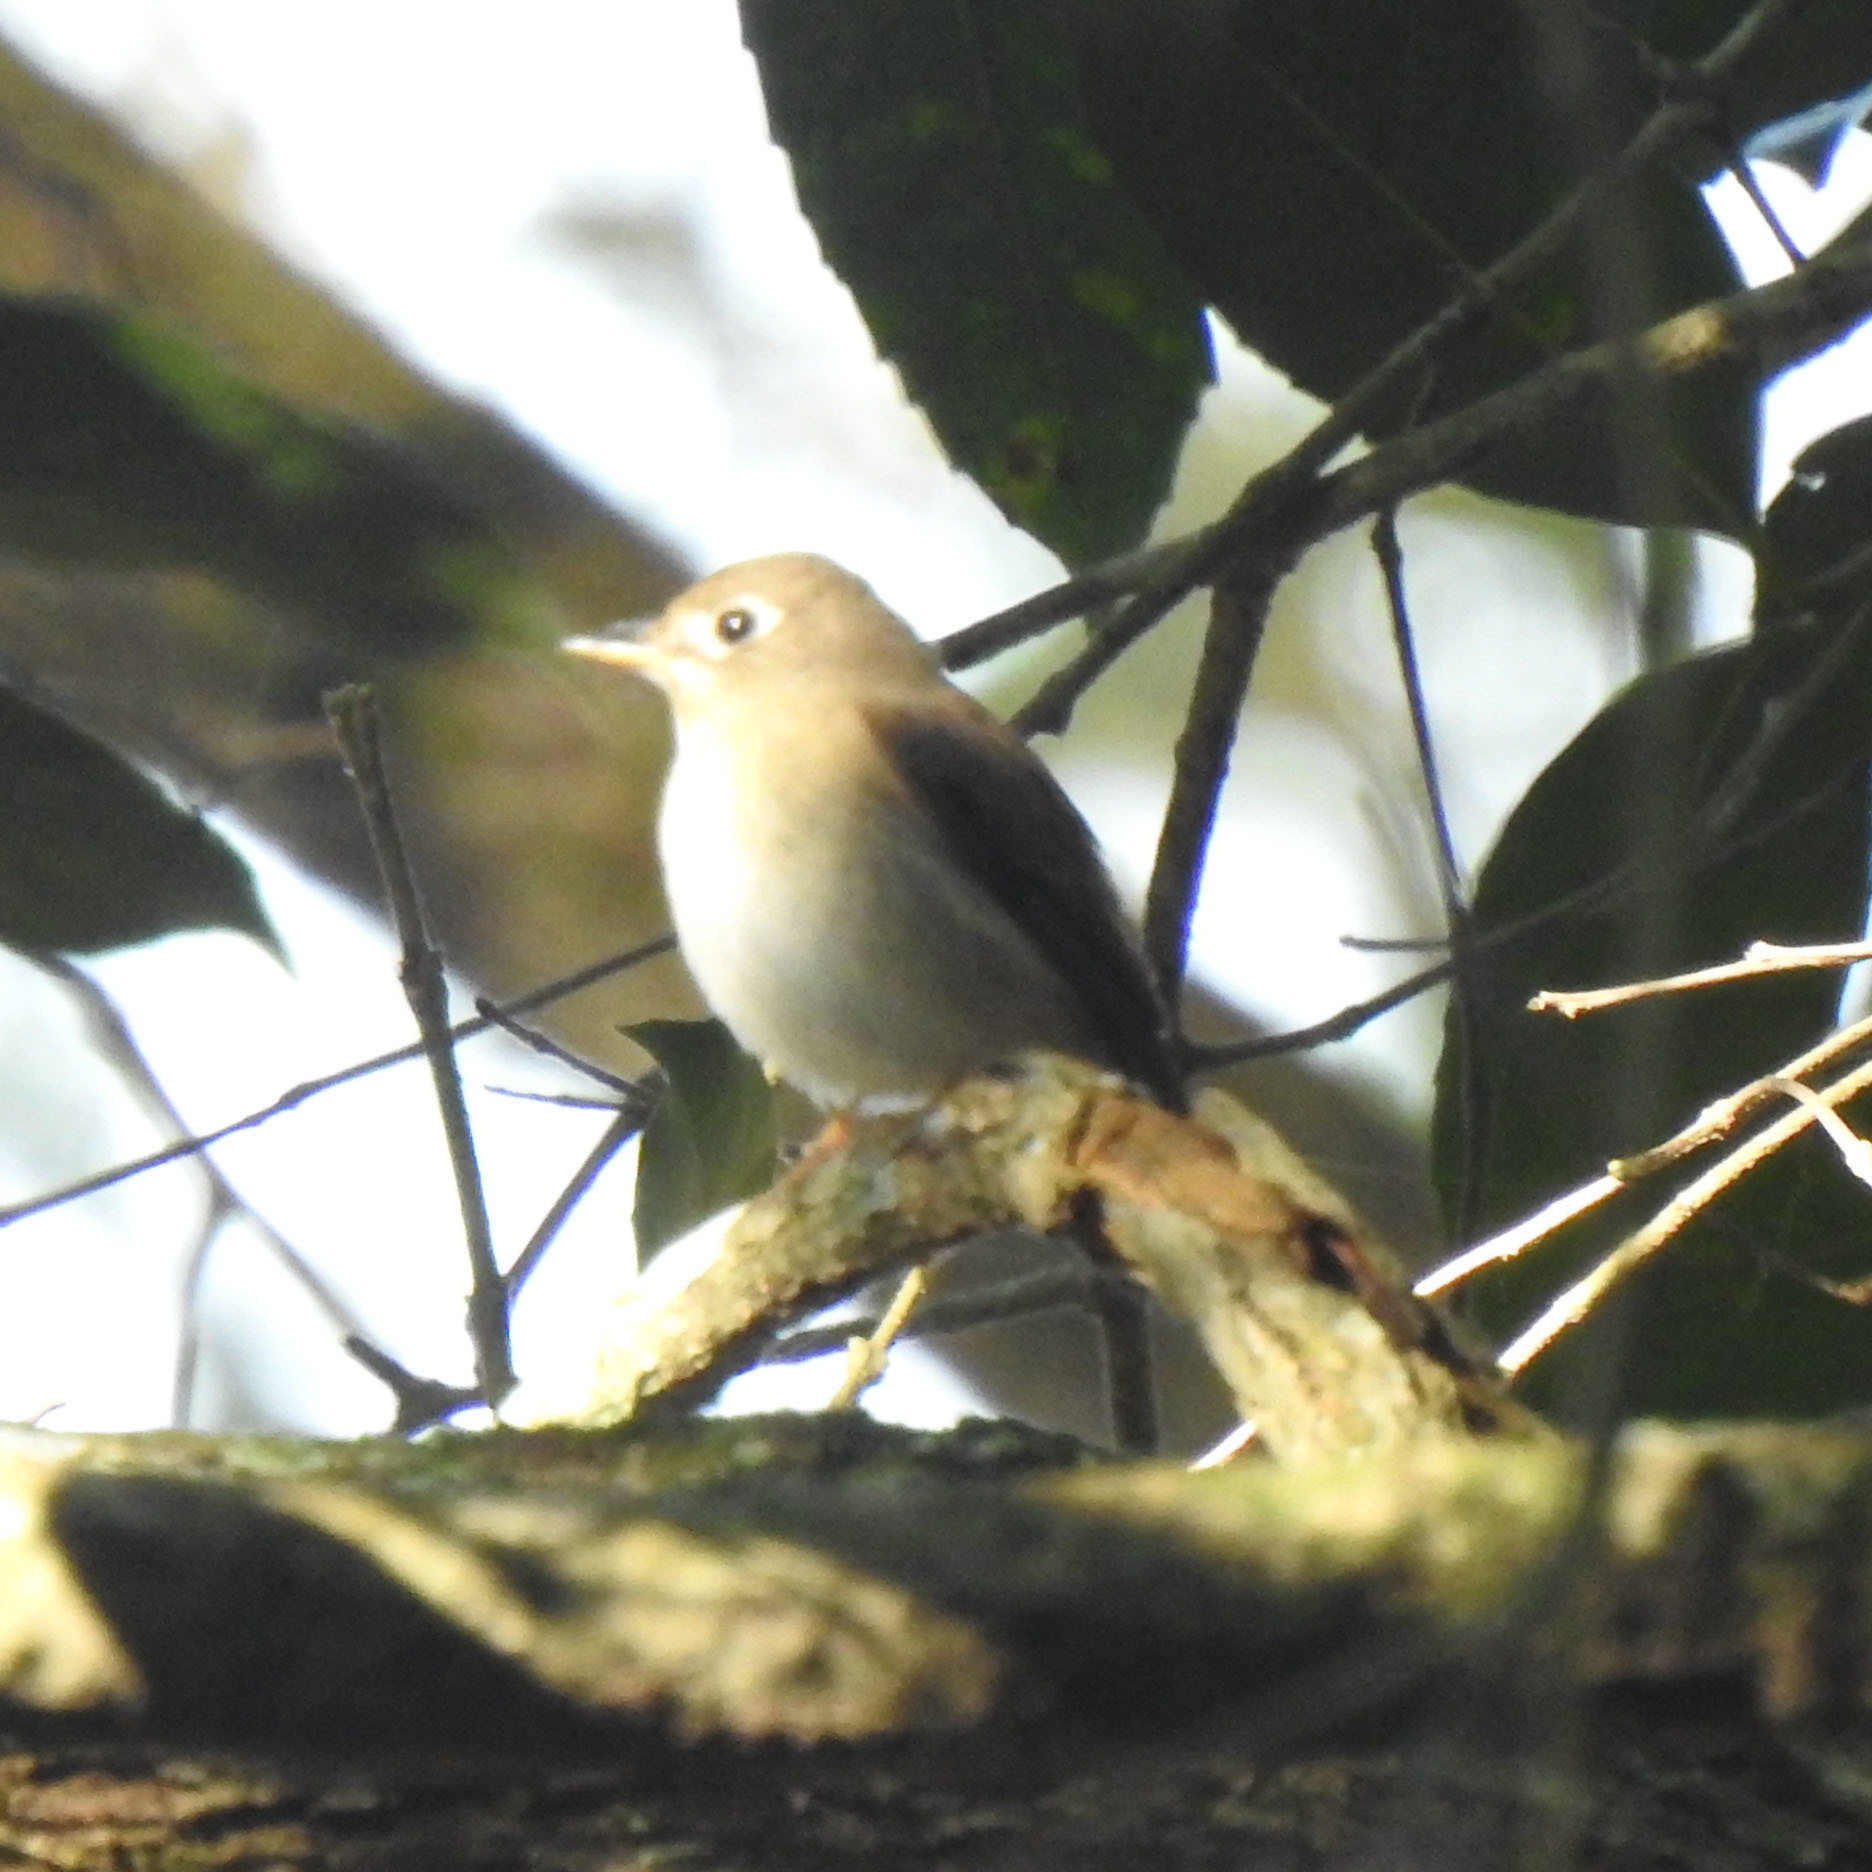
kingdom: Animalia
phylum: Chordata
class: Aves
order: Passeriformes
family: Muscicapidae
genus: Muscicapa
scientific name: Muscicapa muttui
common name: Brown-breasted flycatcher
